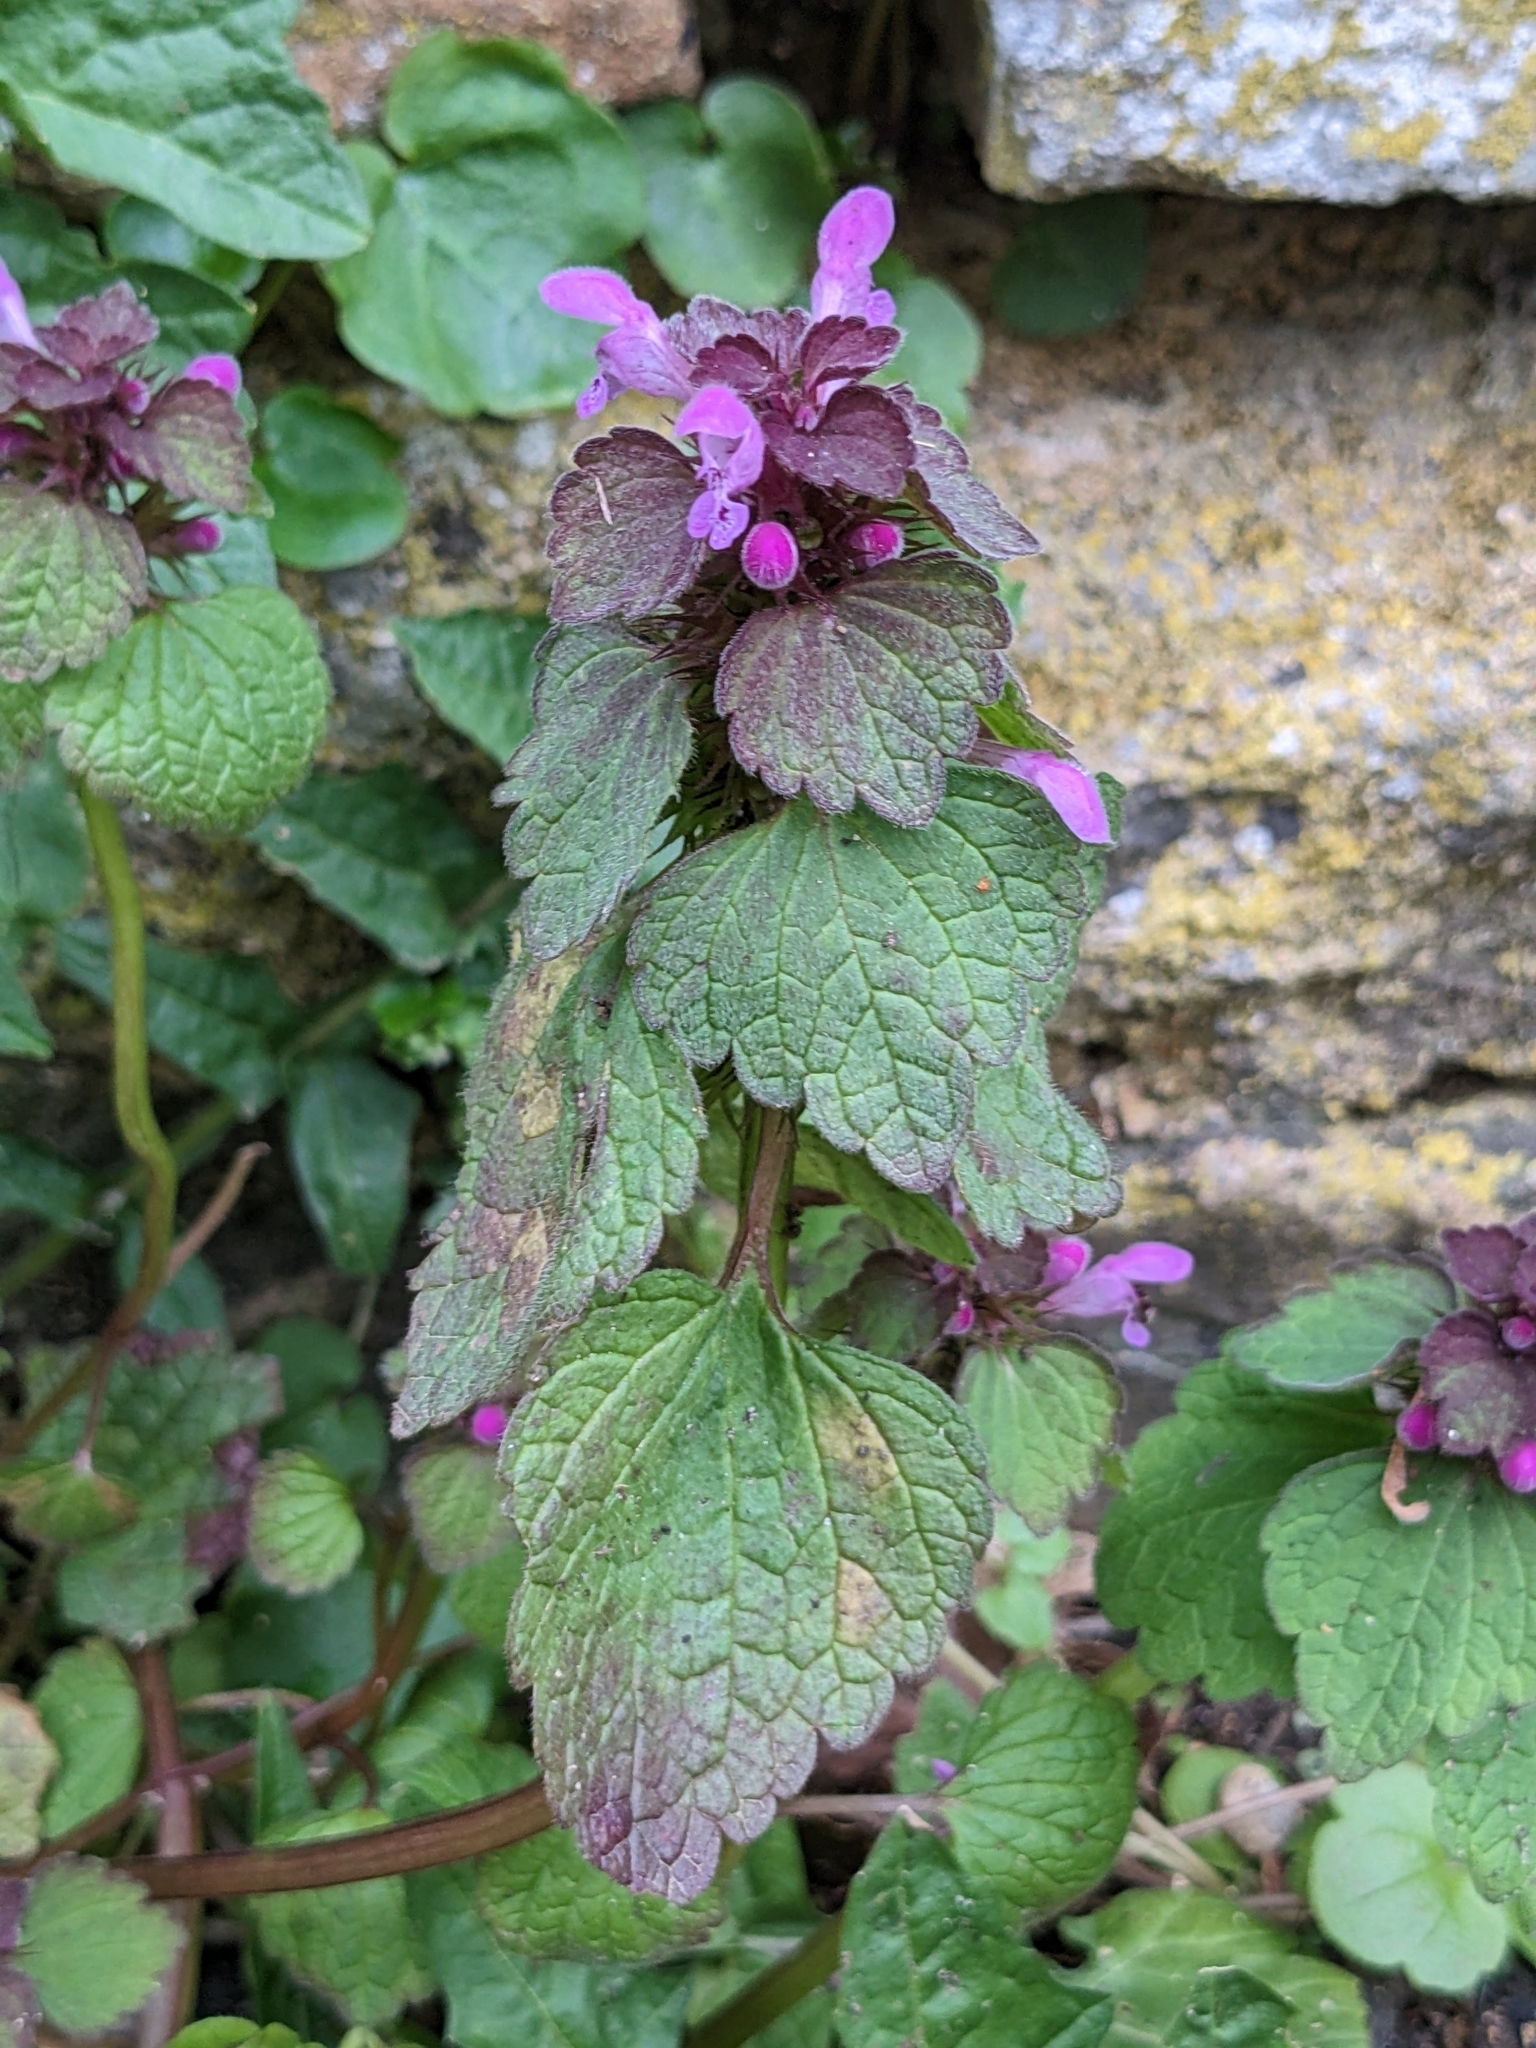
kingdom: Plantae
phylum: Tracheophyta
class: Magnoliopsida
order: Lamiales
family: Lamiaceae
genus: Lamium
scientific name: Lamium purpureum
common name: Red dead-nettle
